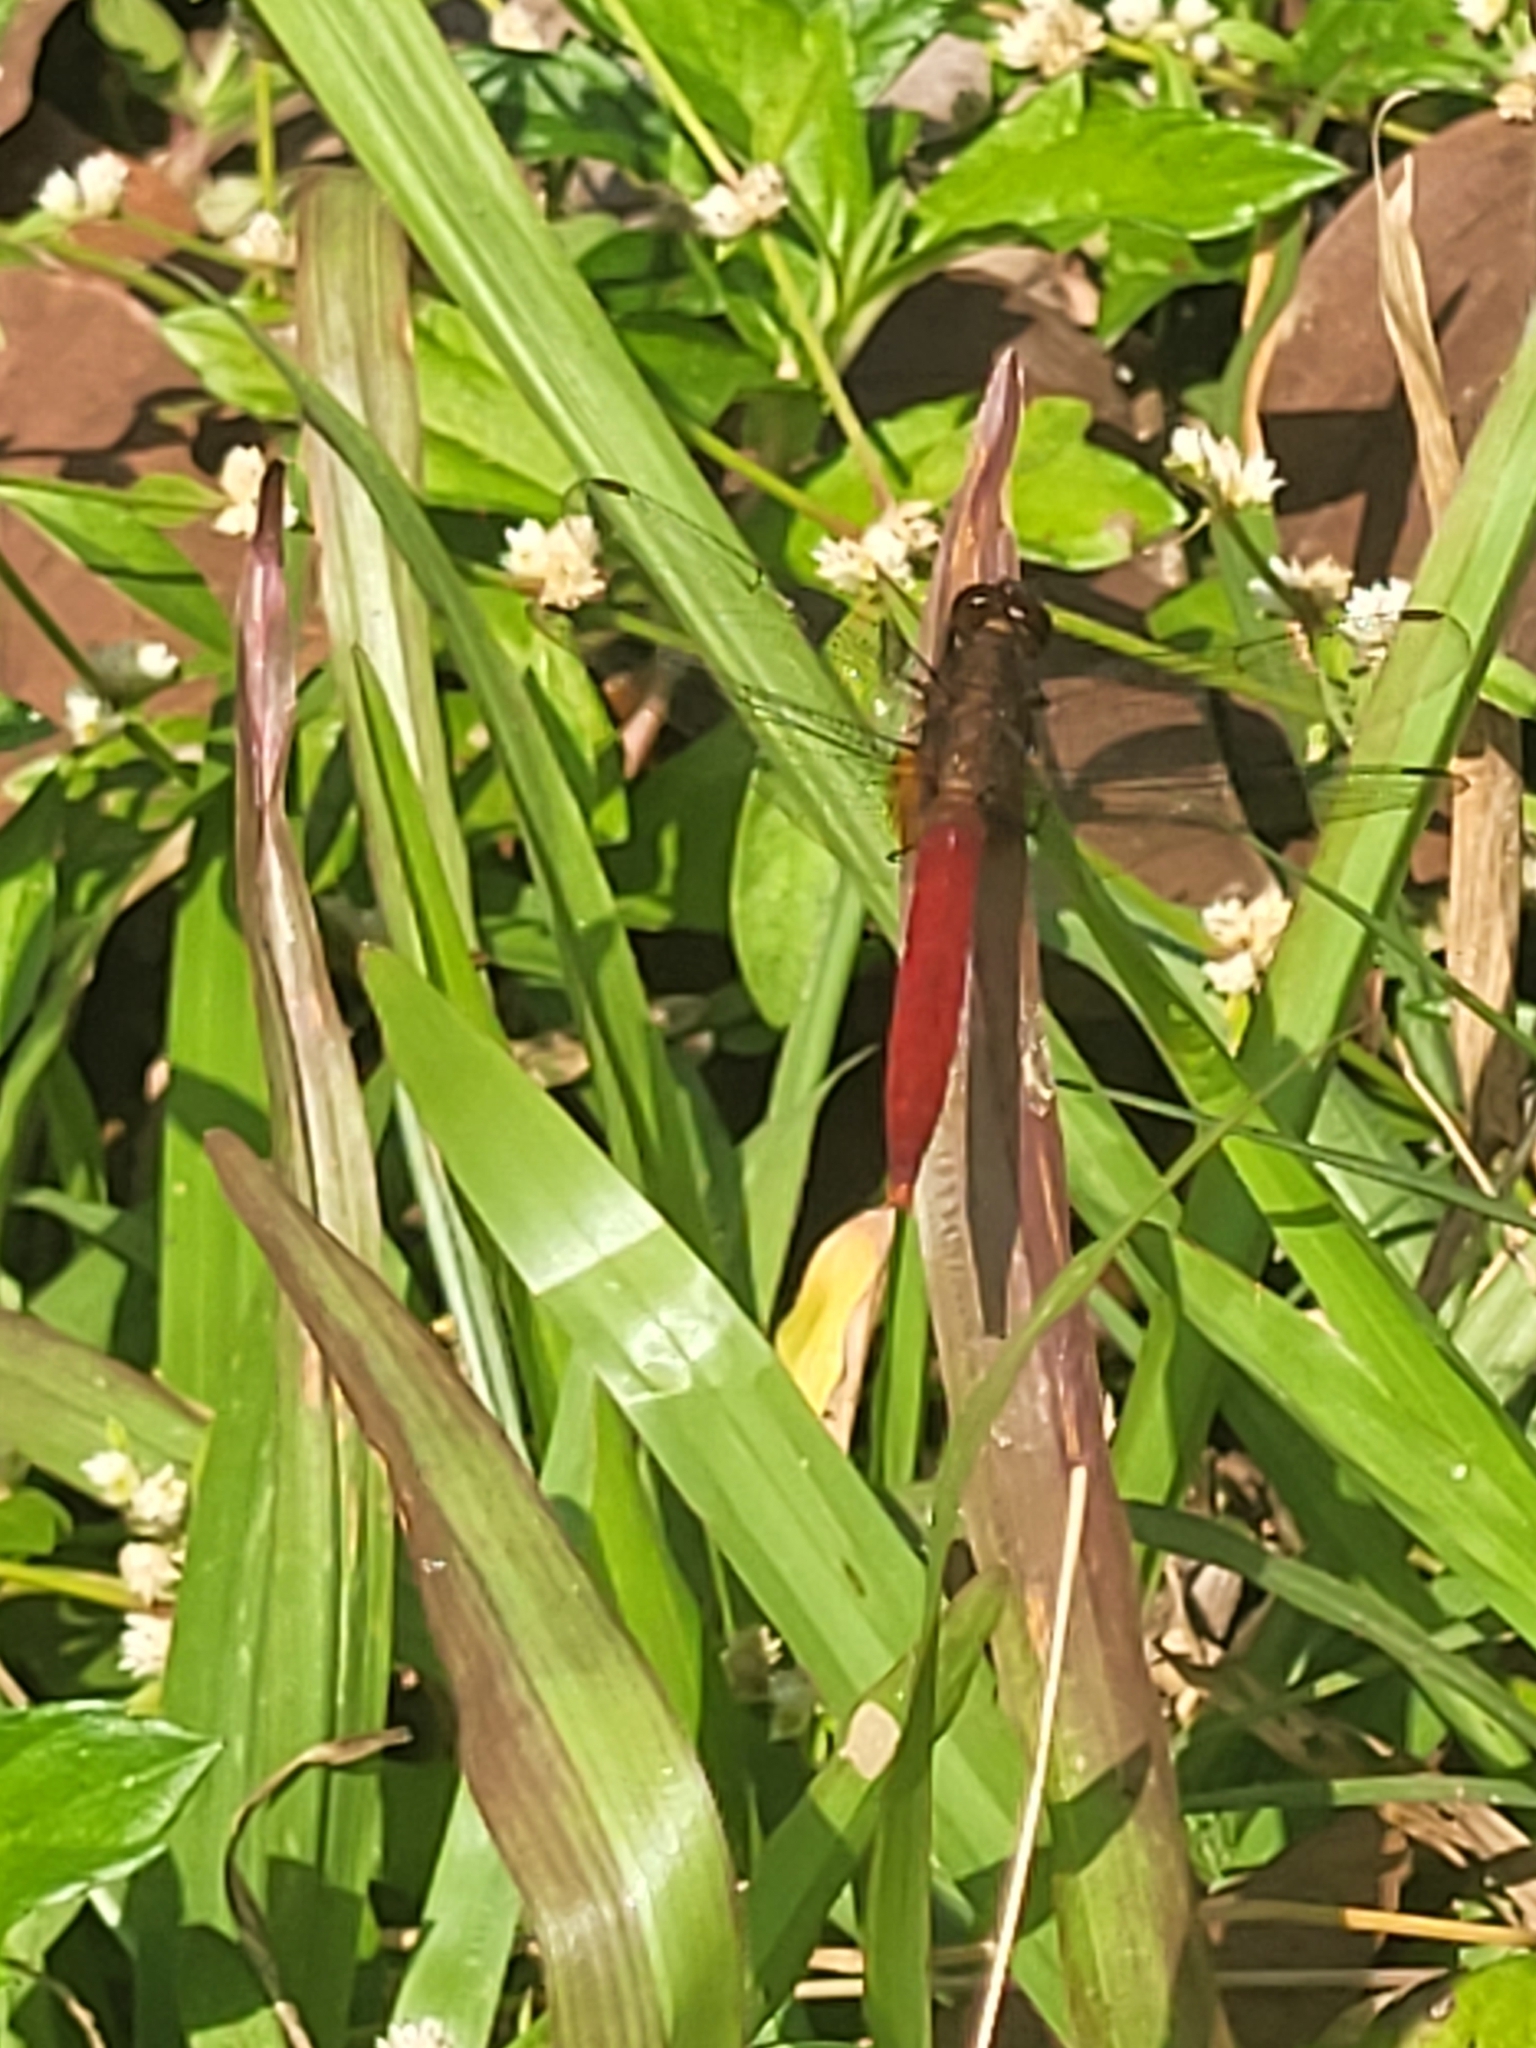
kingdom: Animalia
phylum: Arthropoda
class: Insecta
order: Odonata
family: Libellulidae
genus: Orthetrum
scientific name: Orthetrum chrysis
